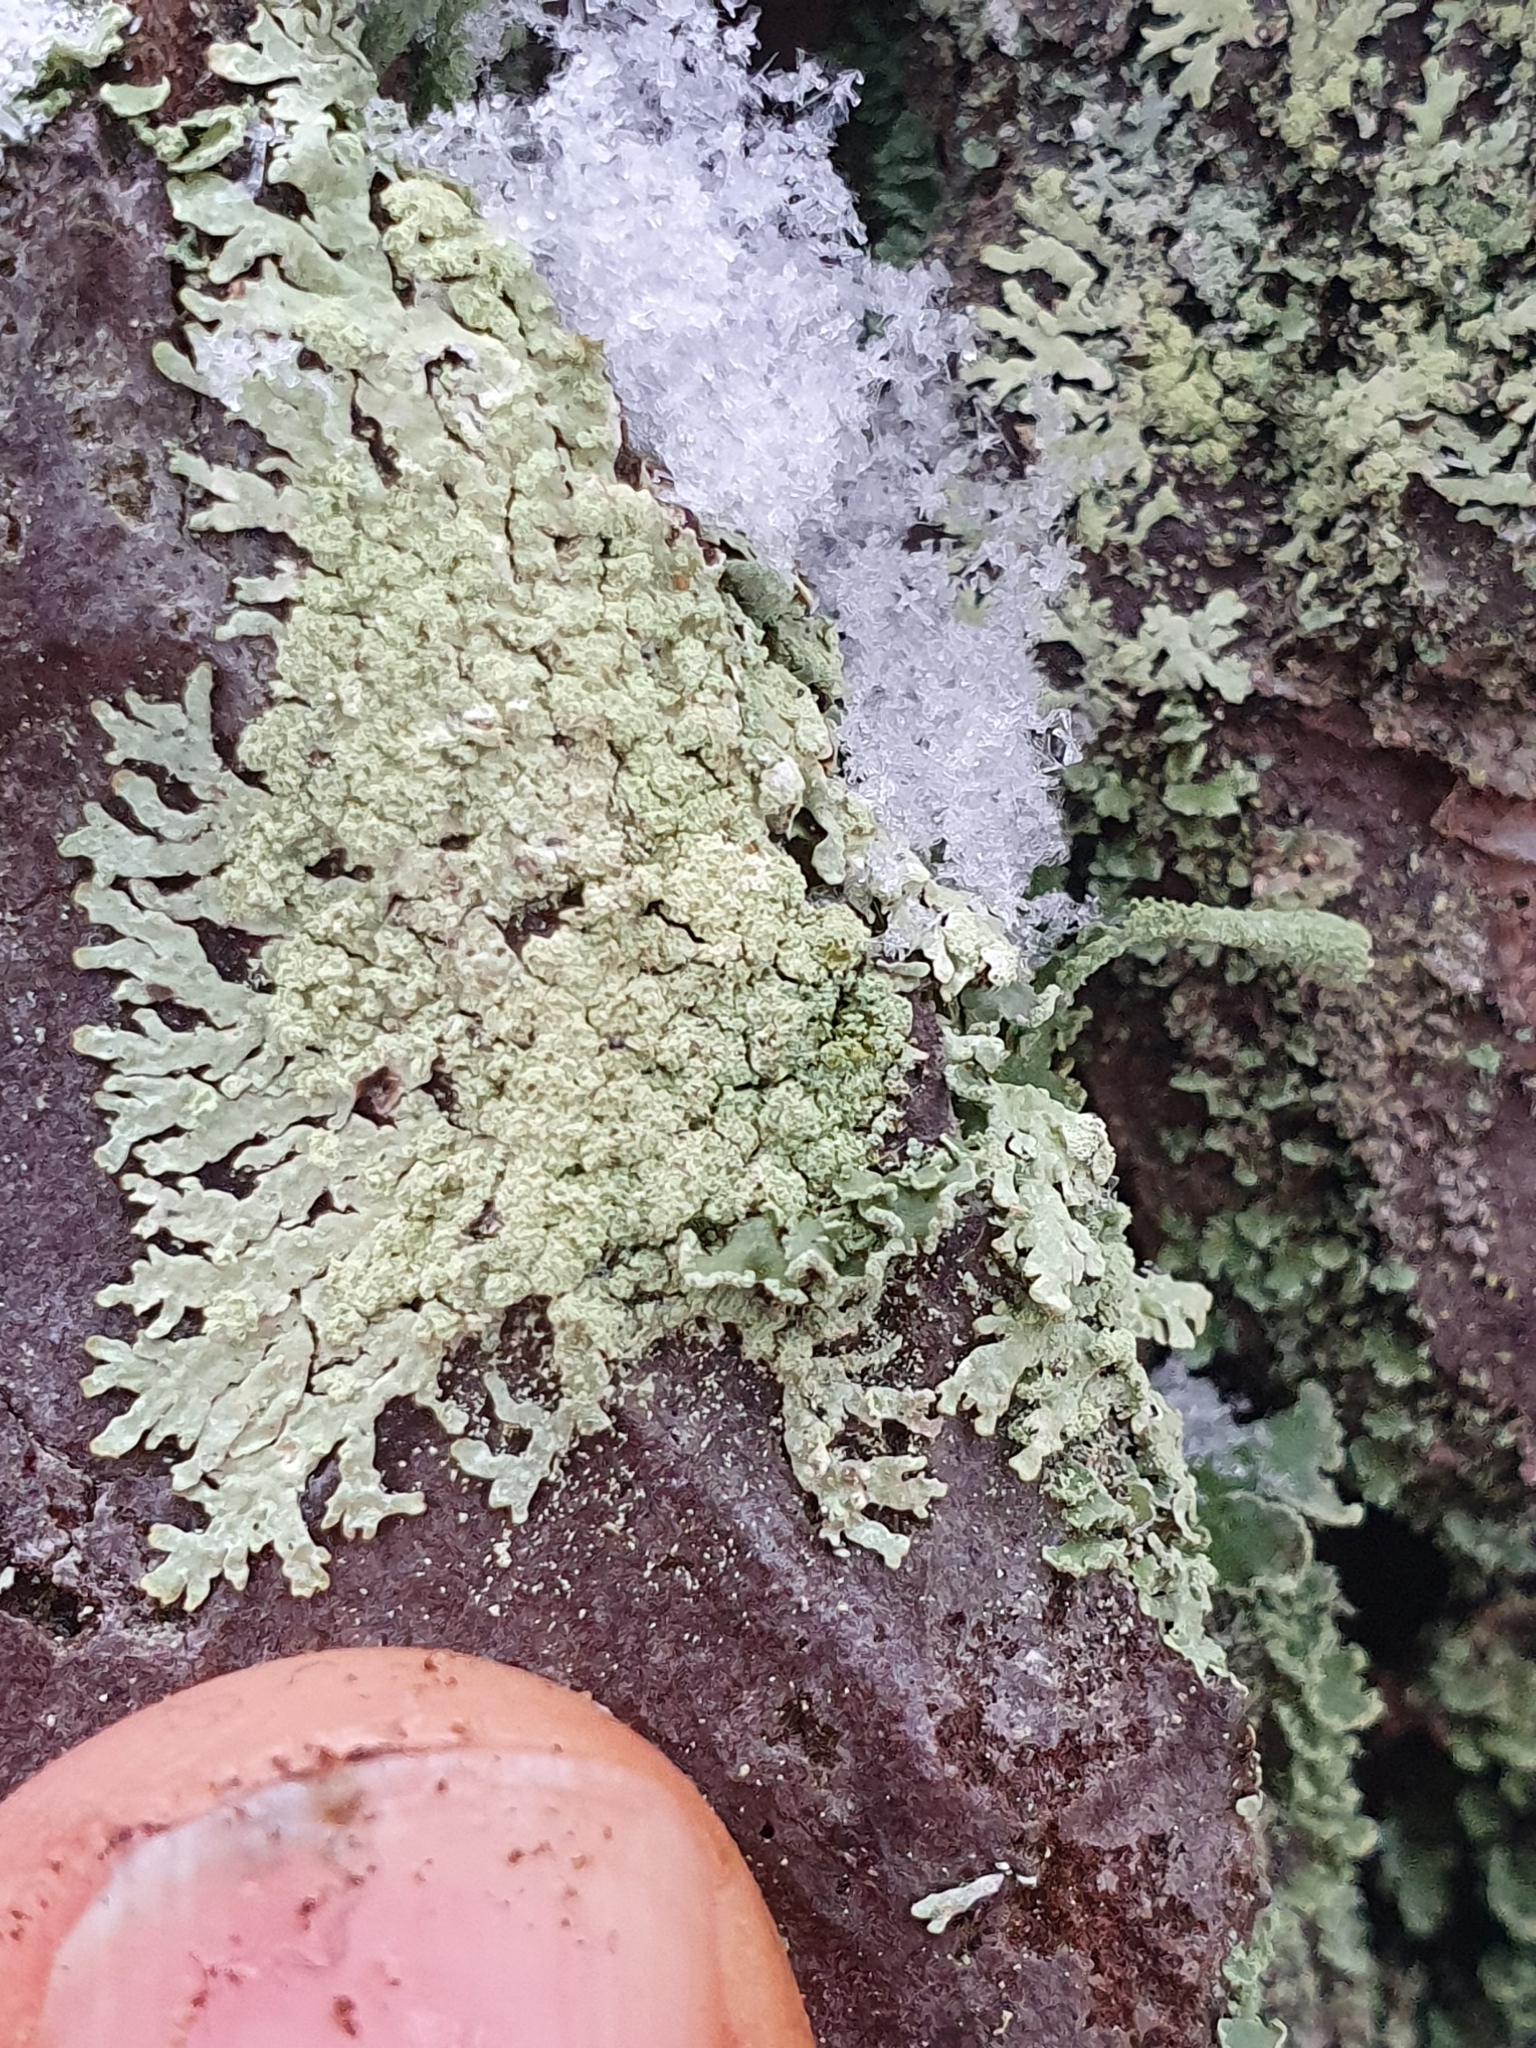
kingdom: Fungi
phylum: Ascomycota
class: Lecanoromycetes
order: Lecanorales
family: Parmeliaceae
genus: Parmeliopsis
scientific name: Parmeliopsis ambigua
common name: Green starburst lichen
